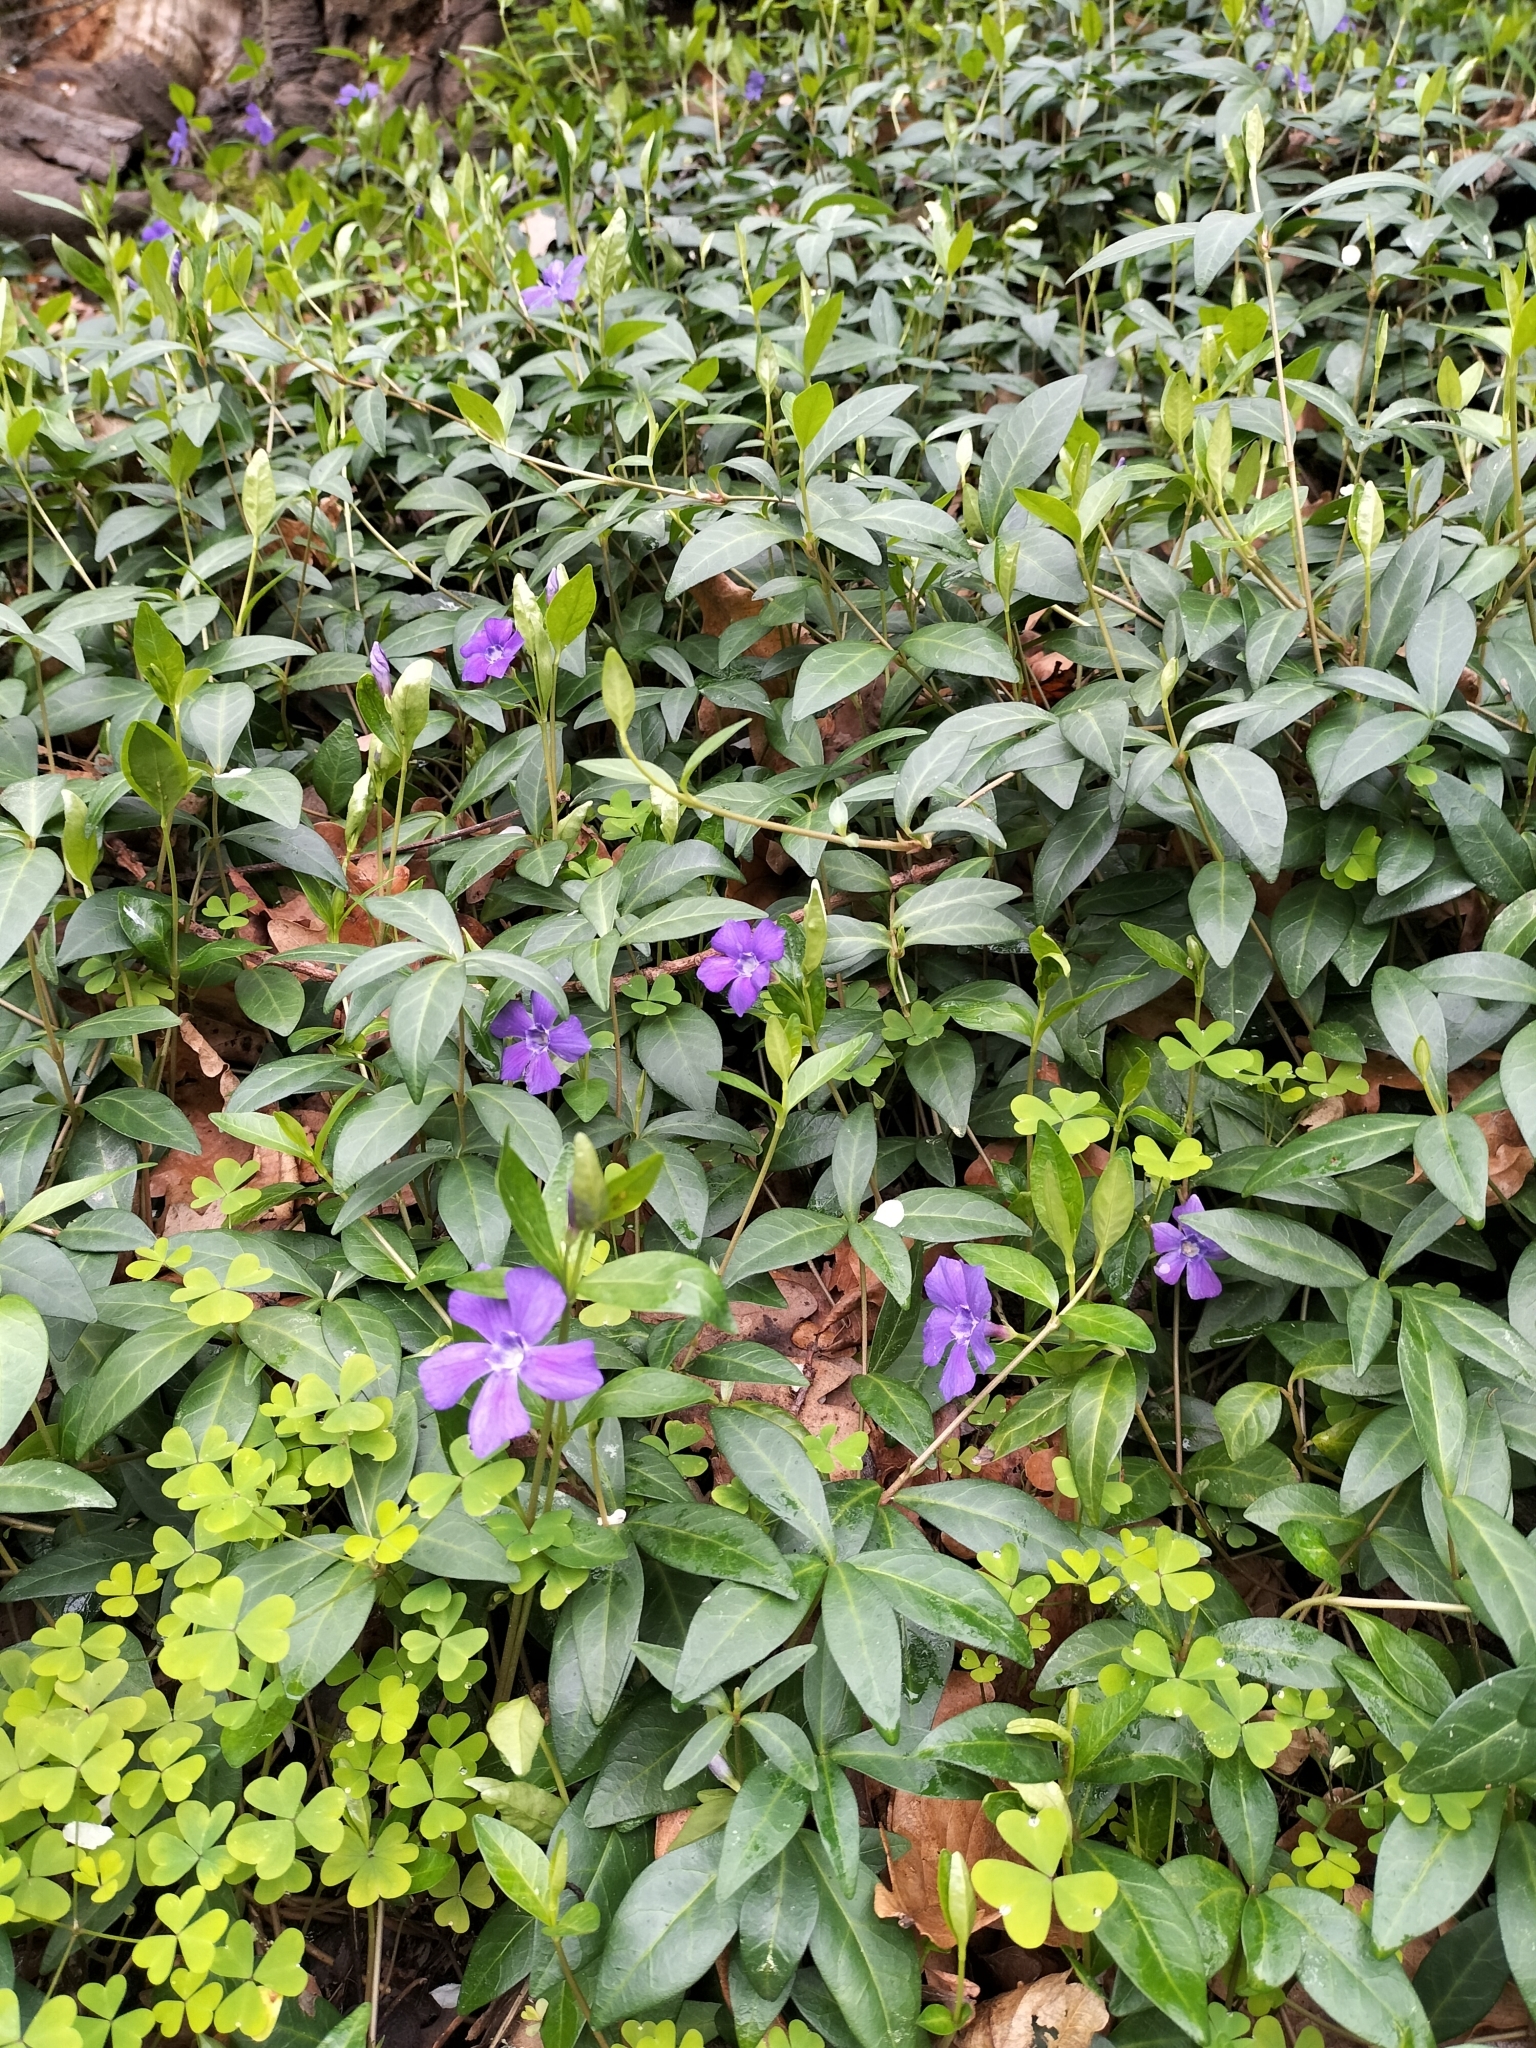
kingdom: Plantae
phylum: Tracheophyta
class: Magnoliopsida
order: Gentianales
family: Apocynaceae
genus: Vinca
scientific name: Vinca minor
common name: Lesser periwinkle
